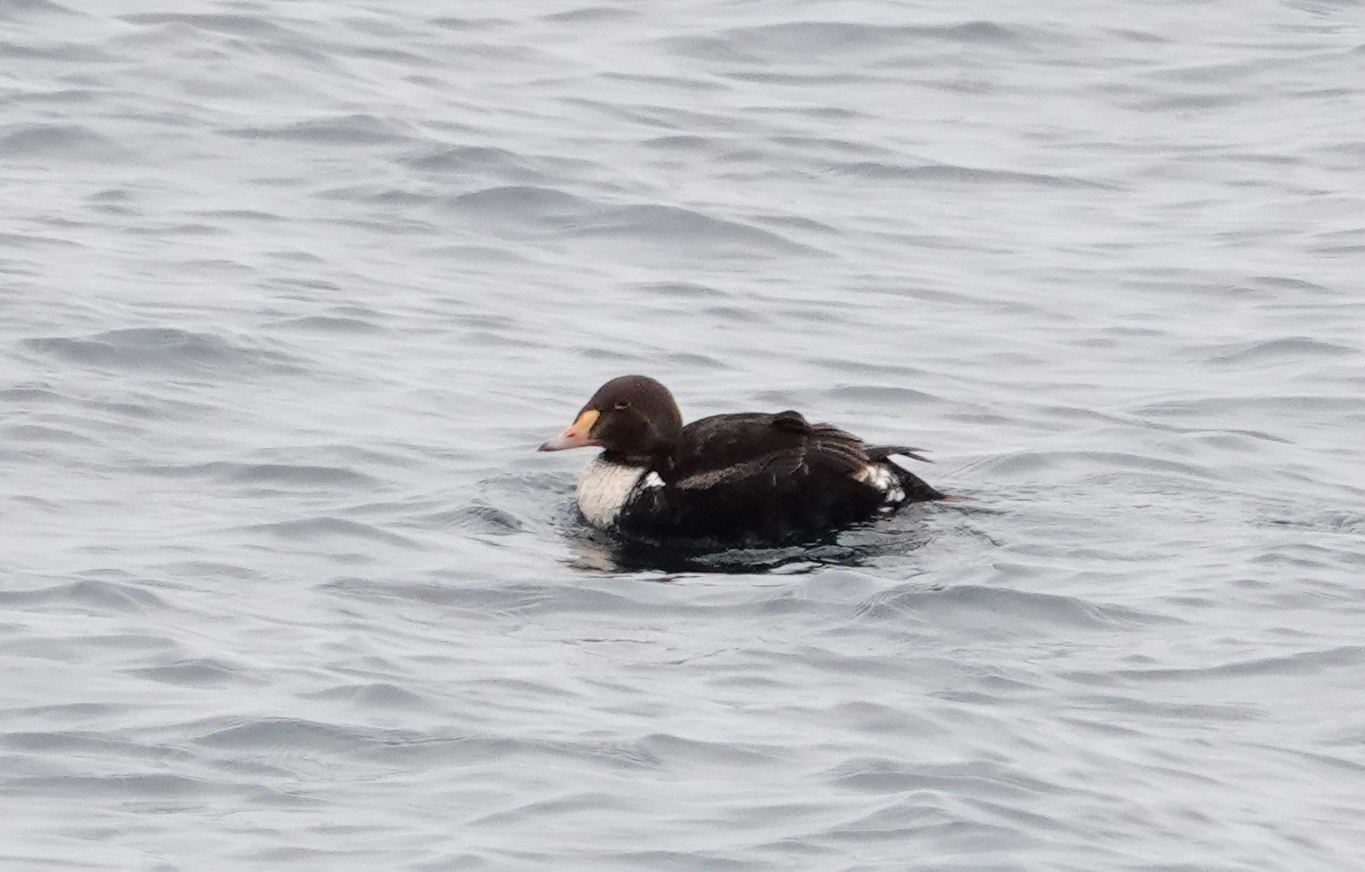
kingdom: Animalia
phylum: Chordata
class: Aves
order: Anseriformes
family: Anatidae
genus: Somateria
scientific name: Somateria spectabilis
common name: King eider
